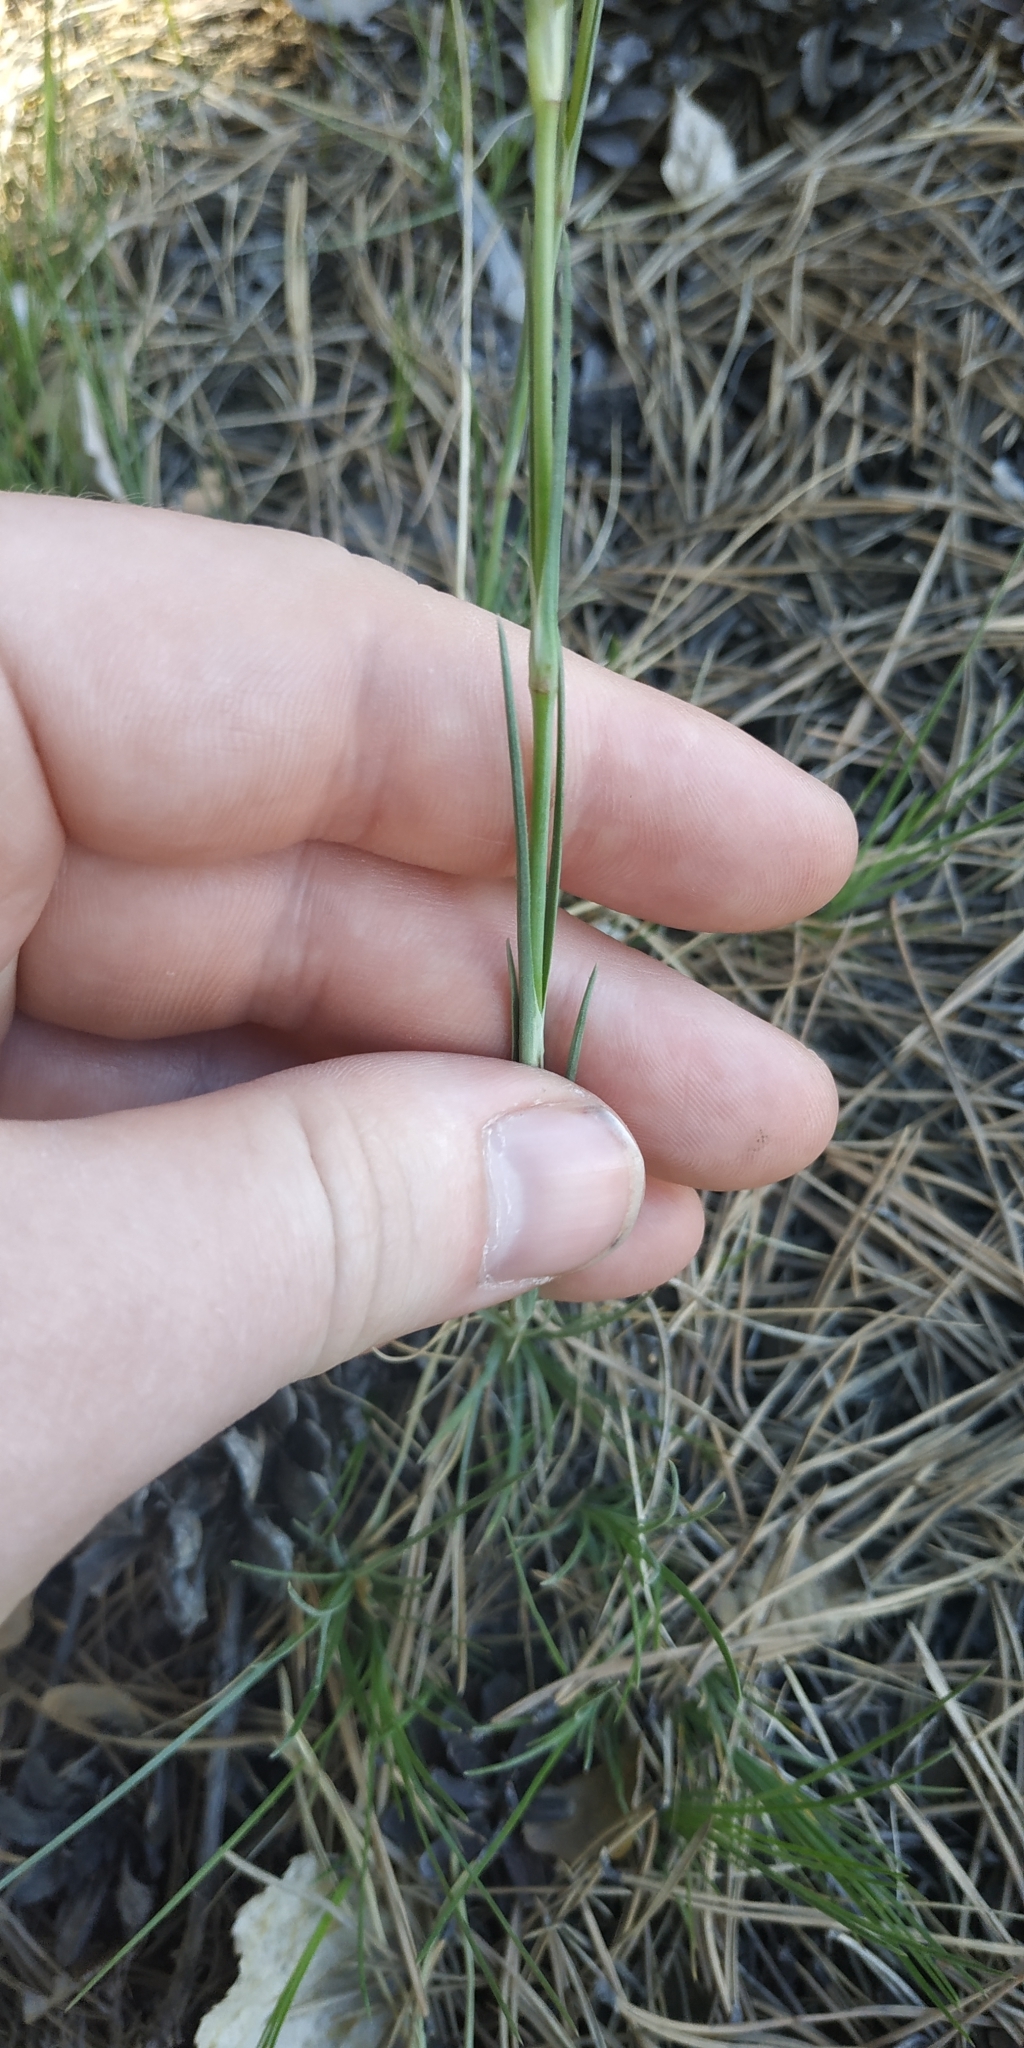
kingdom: Plantae
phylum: Tracheophyta
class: Magnoliopsida
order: Caryophyllales
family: Caryophyllaceae
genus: Eremogone
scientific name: Eremogone saxatilis
